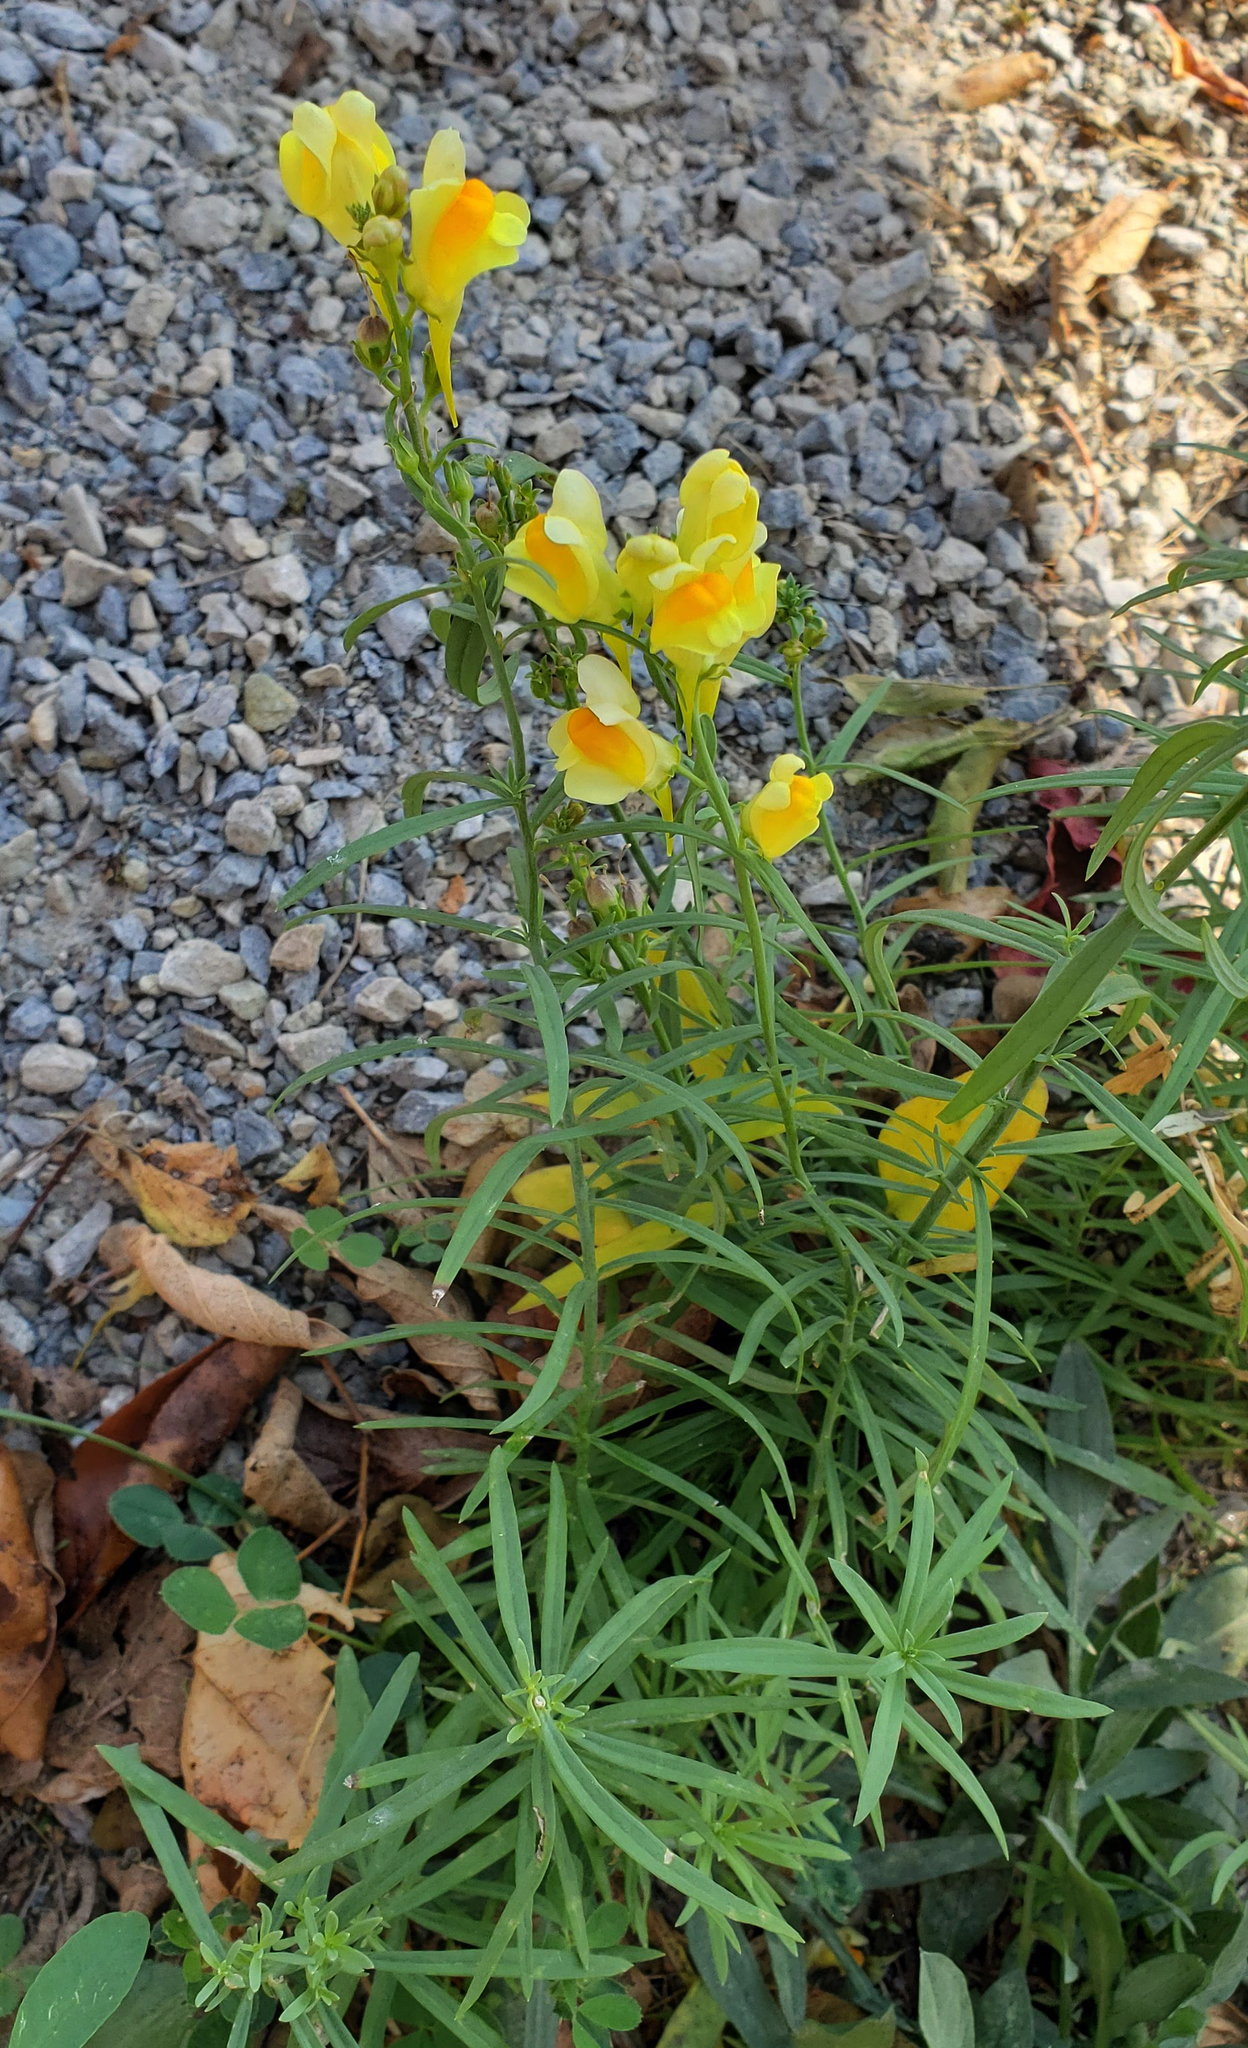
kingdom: Plantae
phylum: Tracheophyta
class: Magnoliopsida
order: Lamiales
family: Plantaginaceae
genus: Linaria
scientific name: Linaria vulgaris
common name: Butter and eggs
